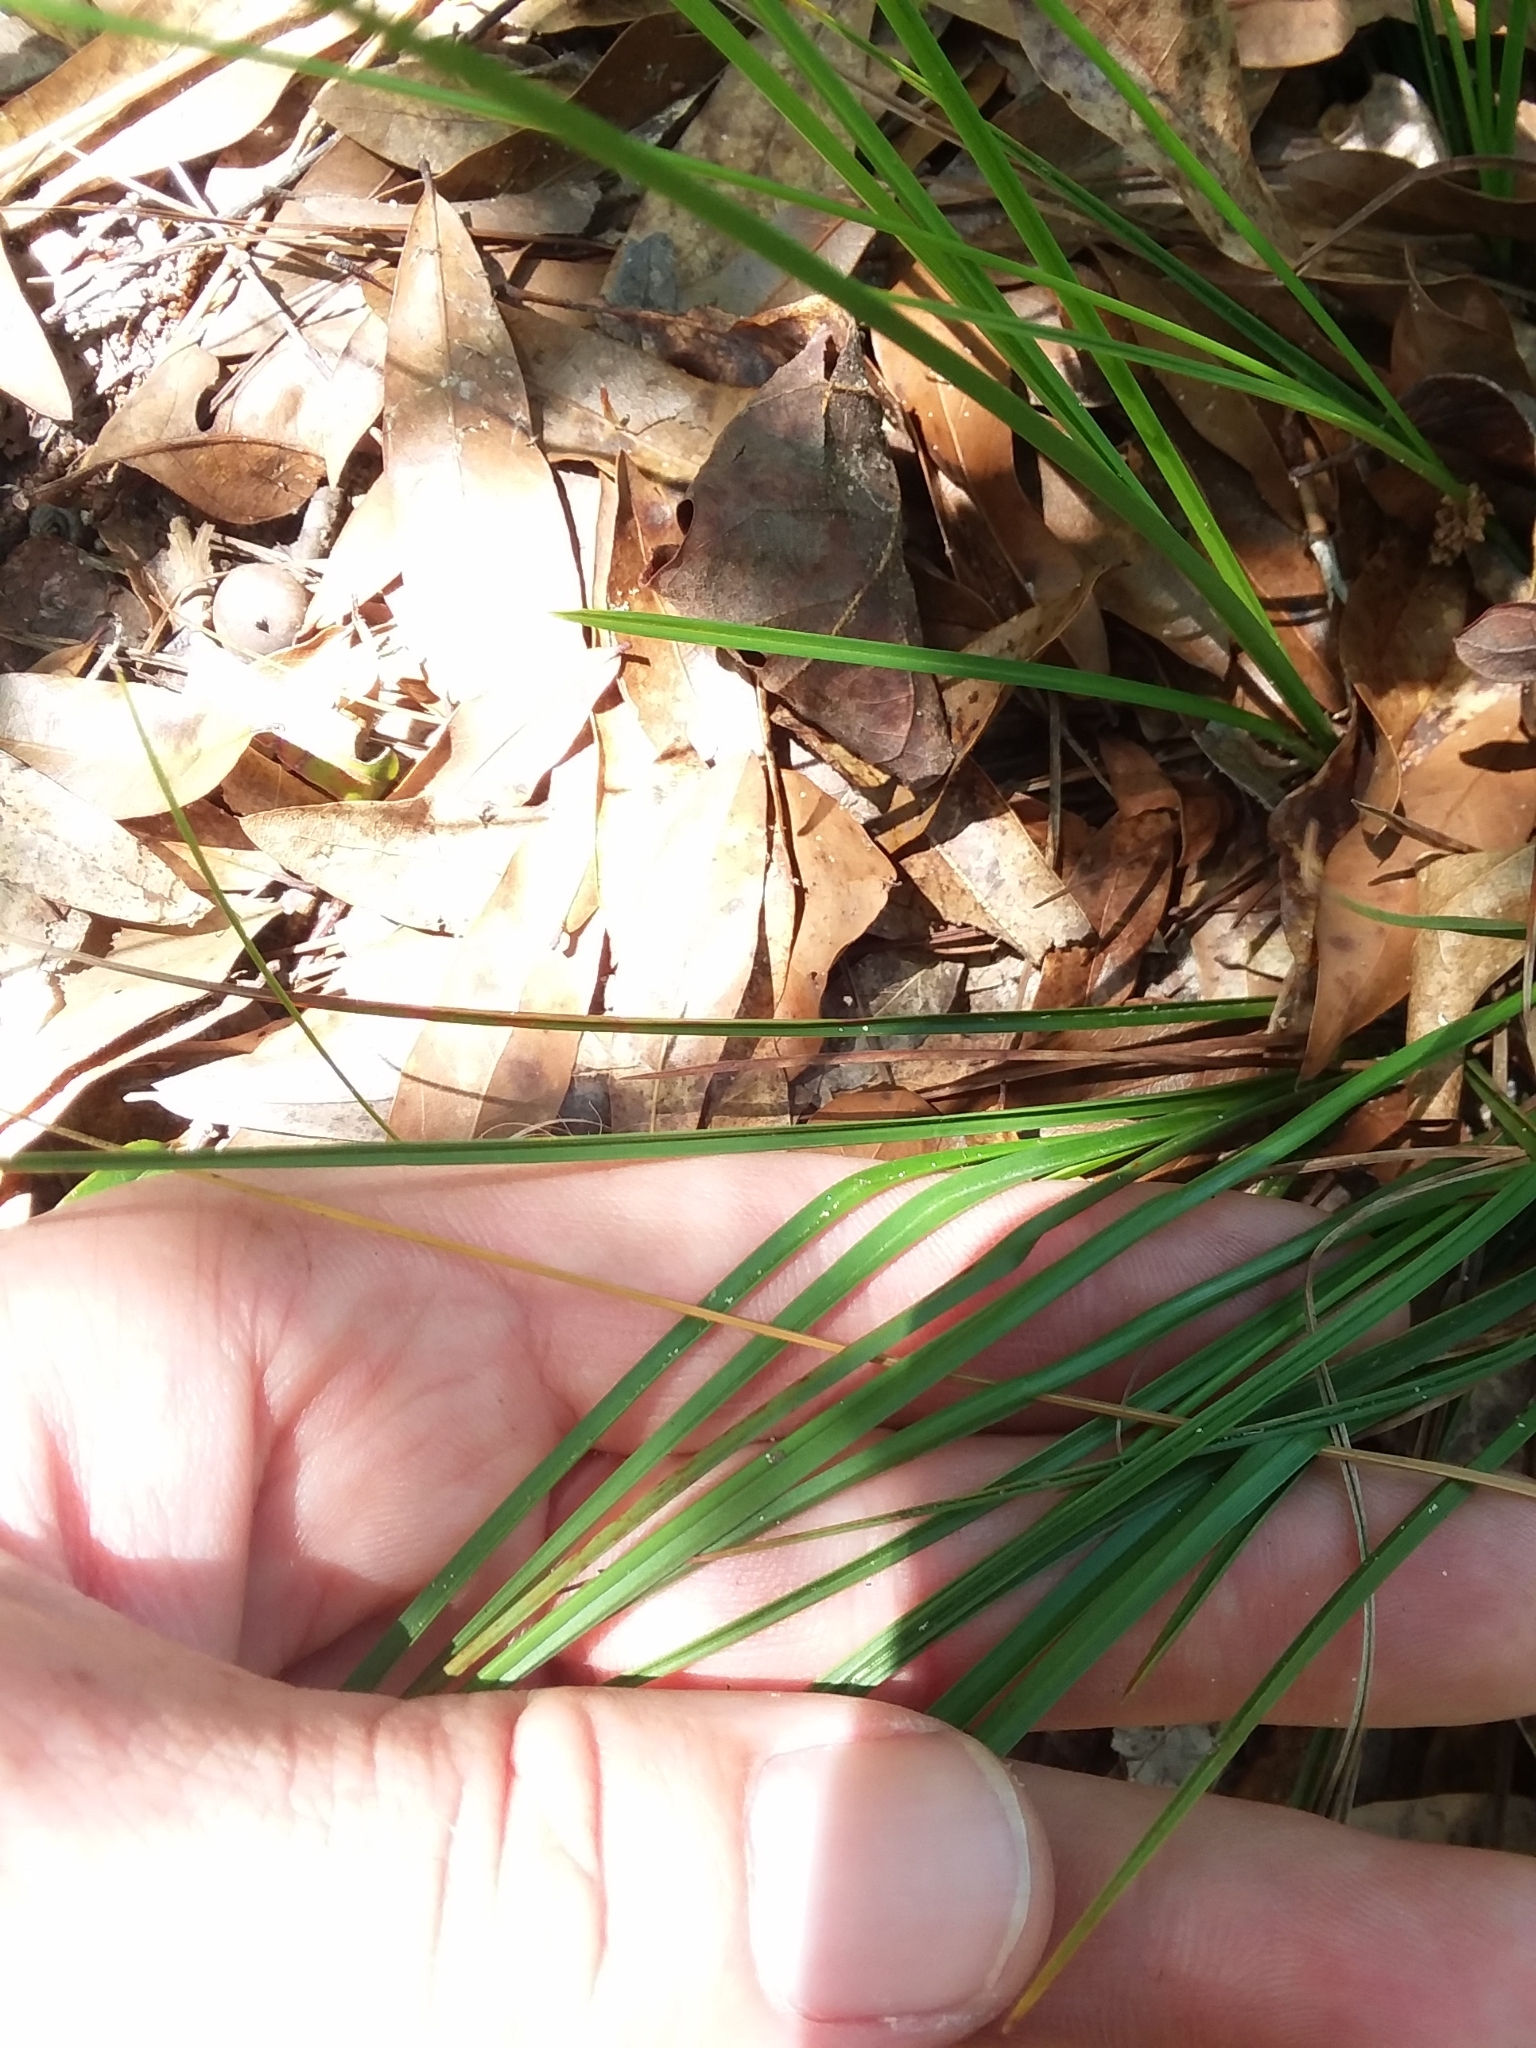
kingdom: Plantae
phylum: Tracheophyta
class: Liliopsida
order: Poales
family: Cyperaceae
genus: Carex
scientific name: Carex tenax
